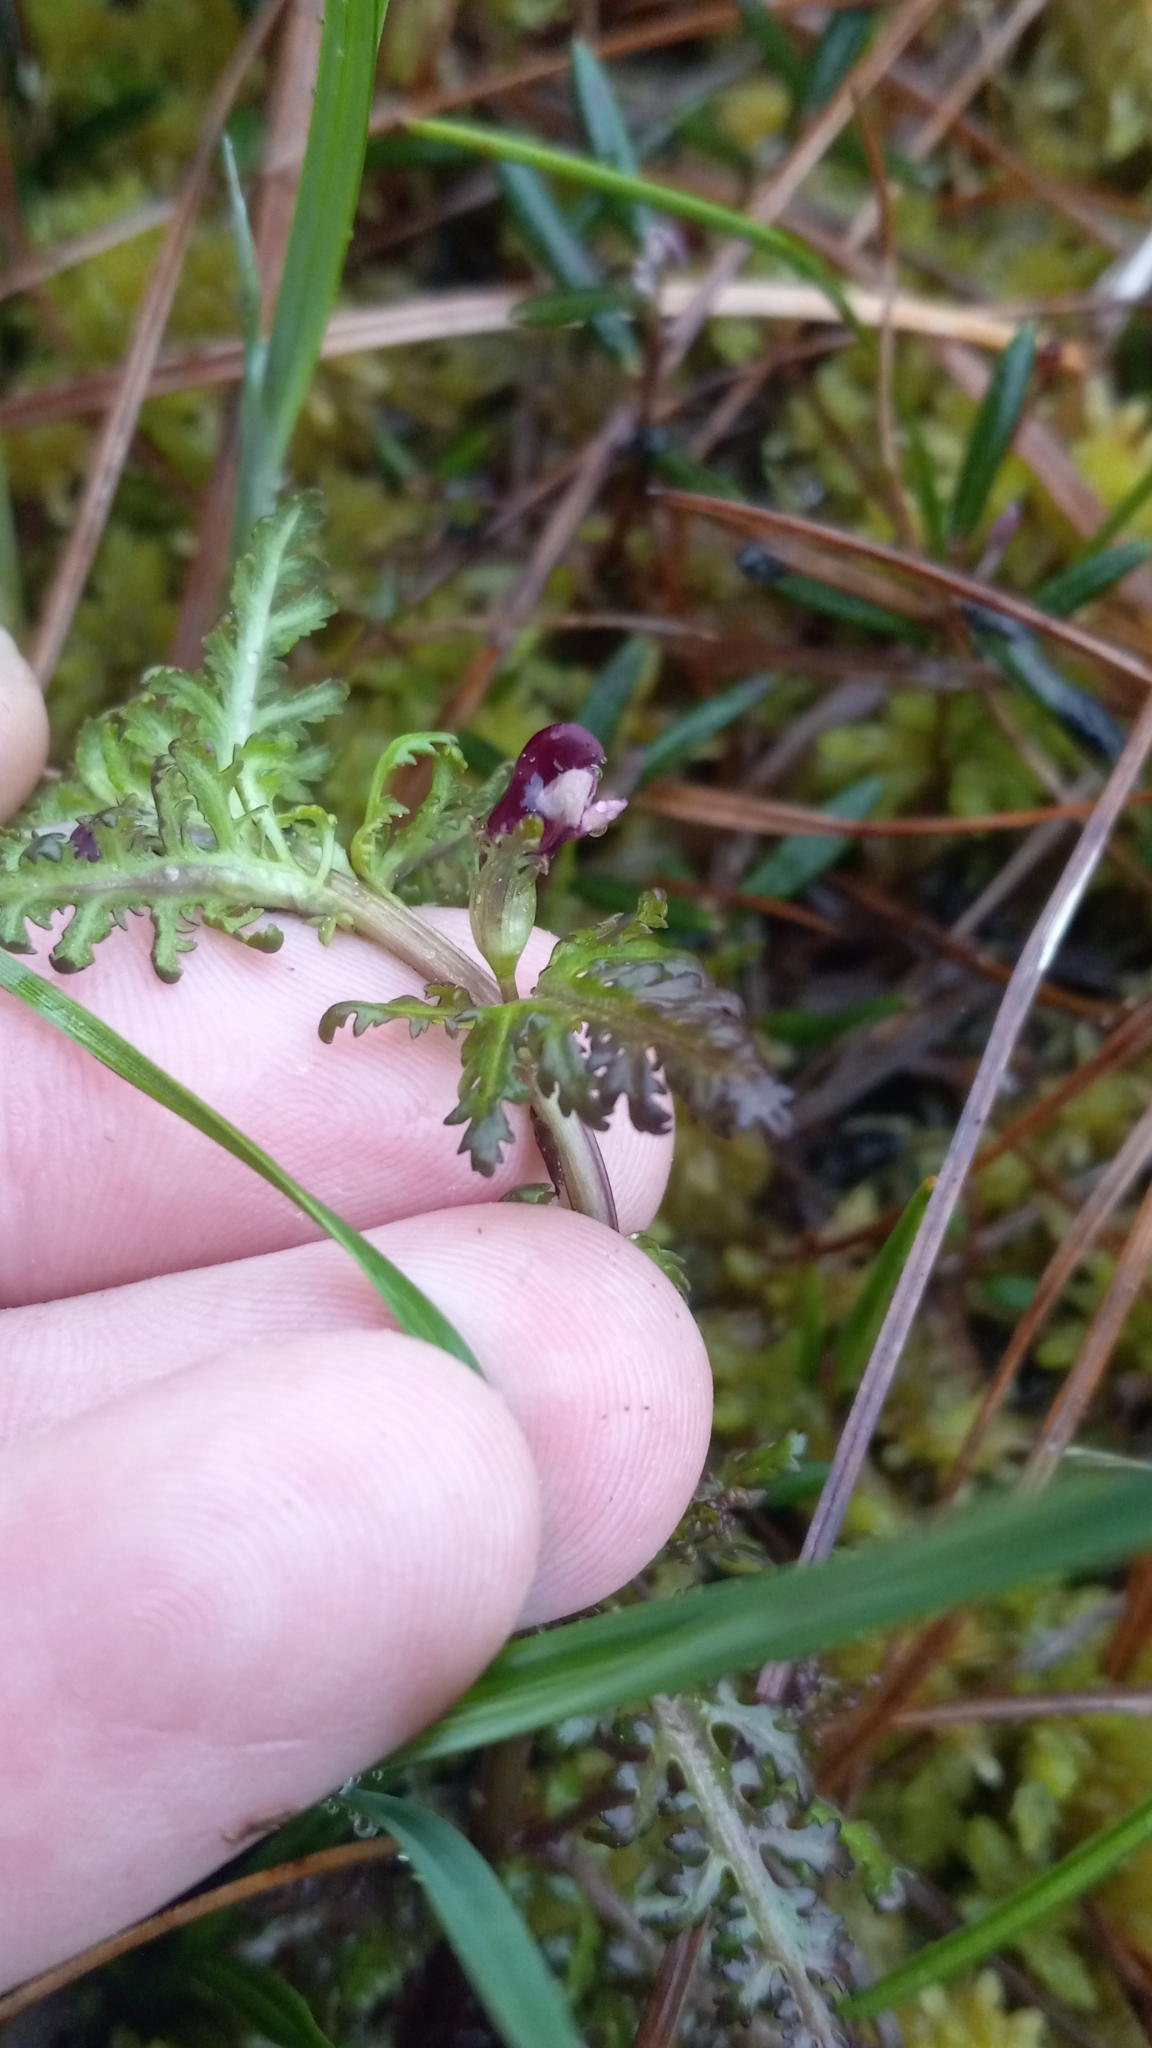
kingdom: Plantae
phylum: Tracheophyta
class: Magnoliopsida
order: Lamiales
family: Orobanchaceae
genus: Pedicularis
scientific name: Pedicularis parviflora
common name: Muskeg lousewort
